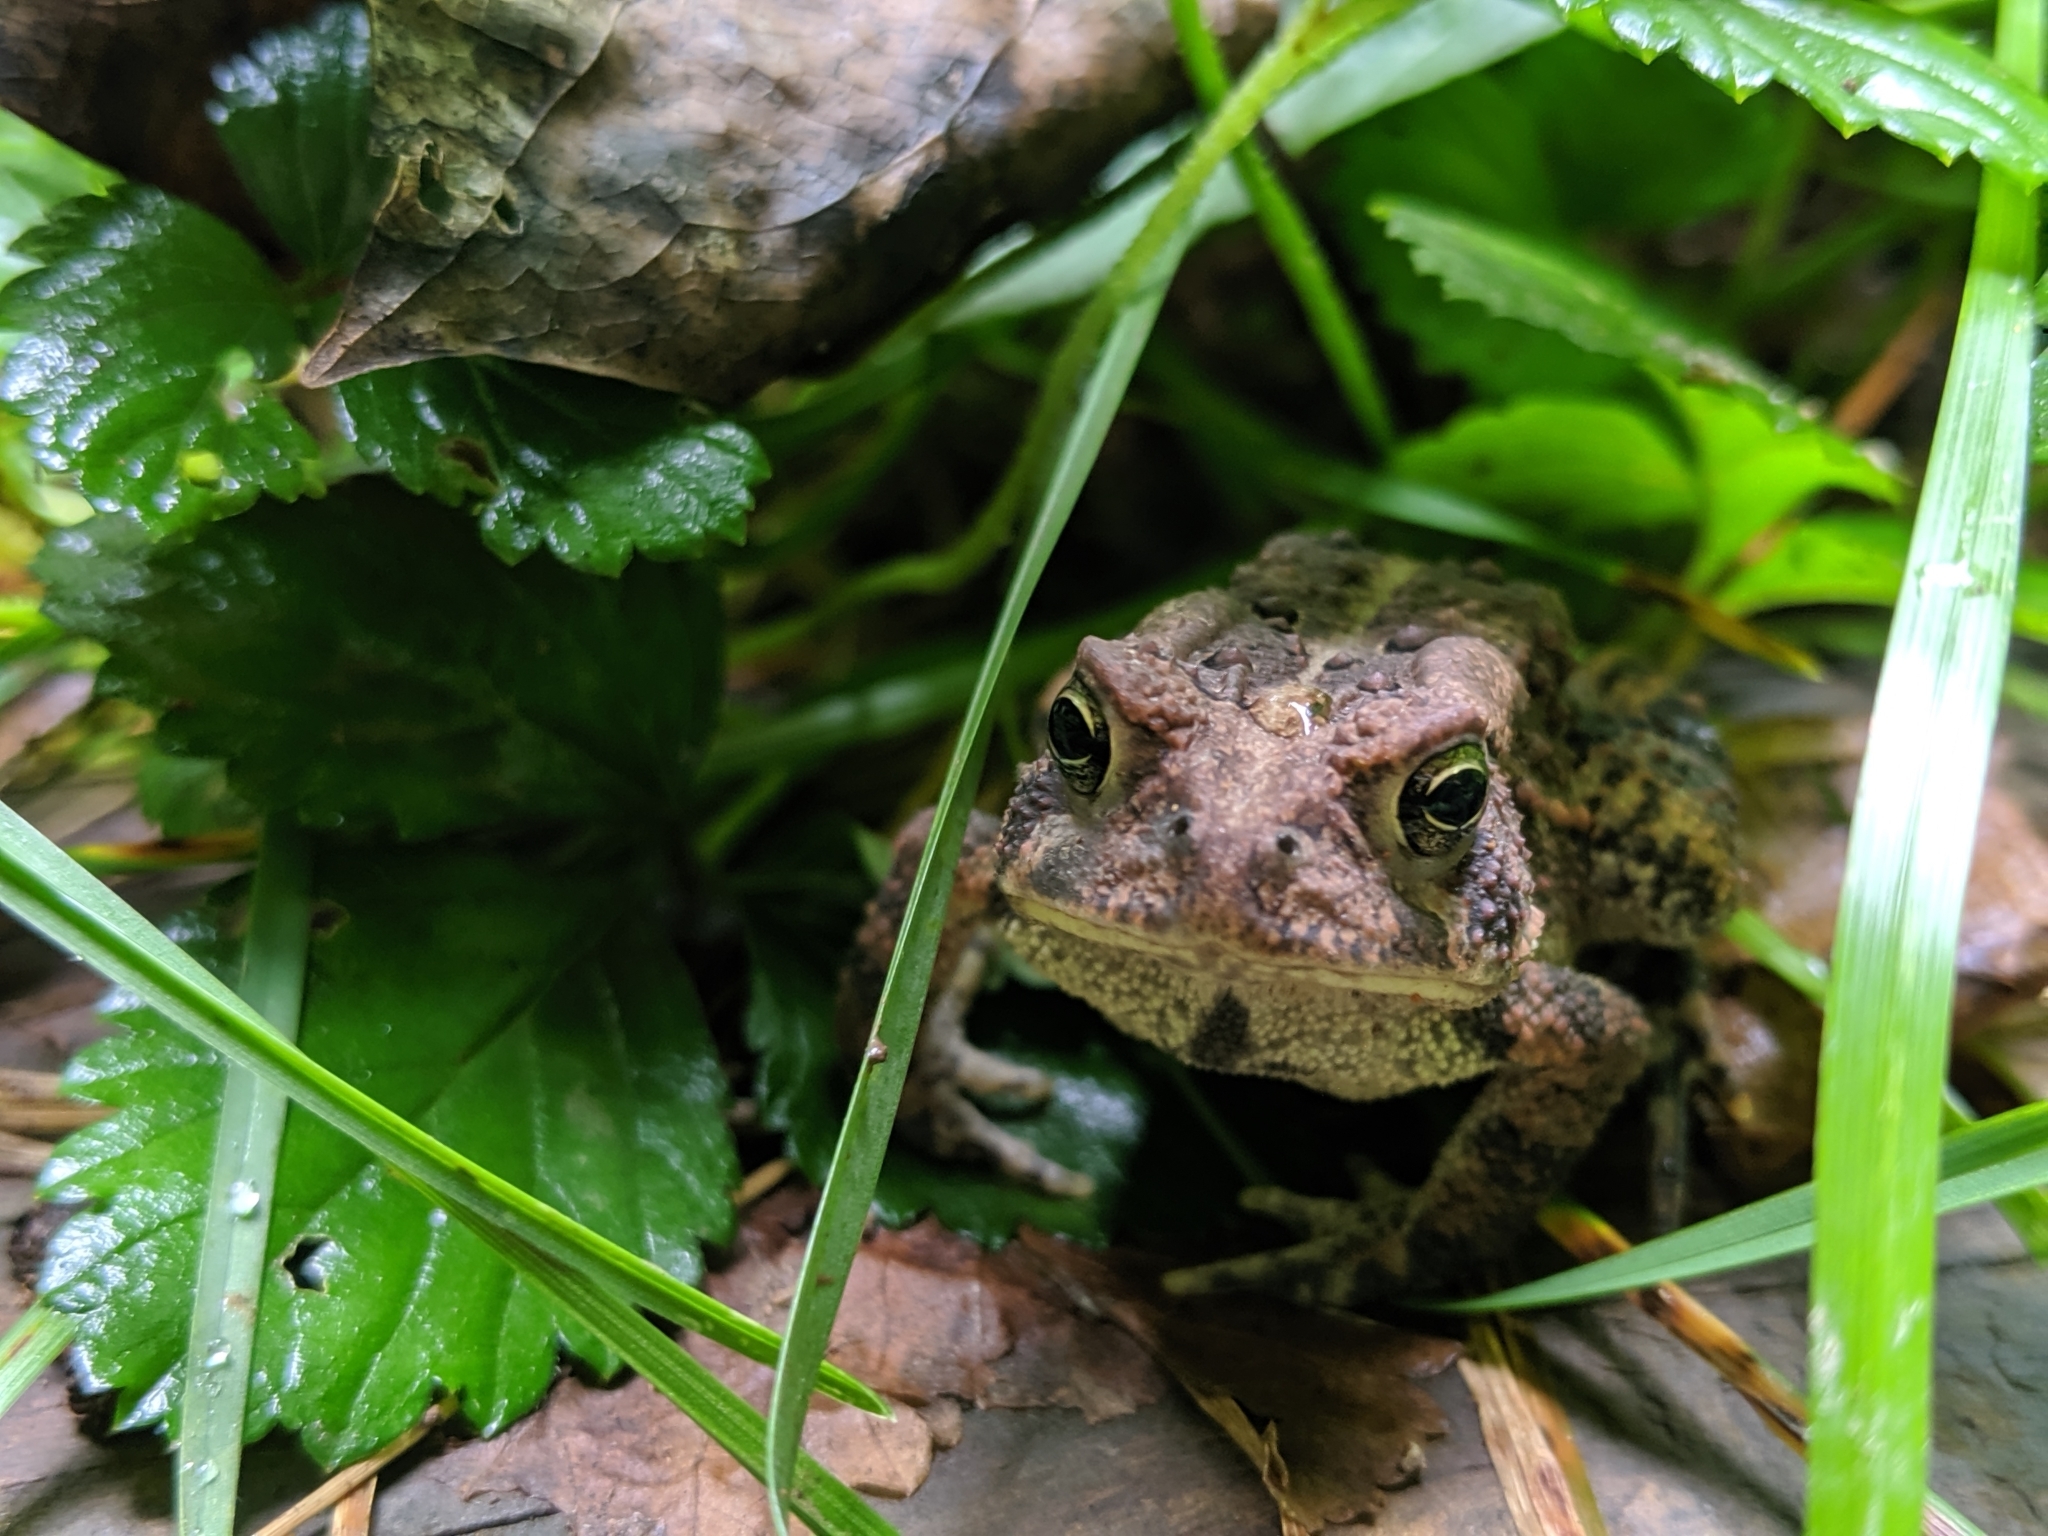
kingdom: Animalia
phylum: Chordata
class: Amphibia
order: Anura
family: Bufonidae
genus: Anaxyrus
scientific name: Anaxyrus americanus
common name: American toad
